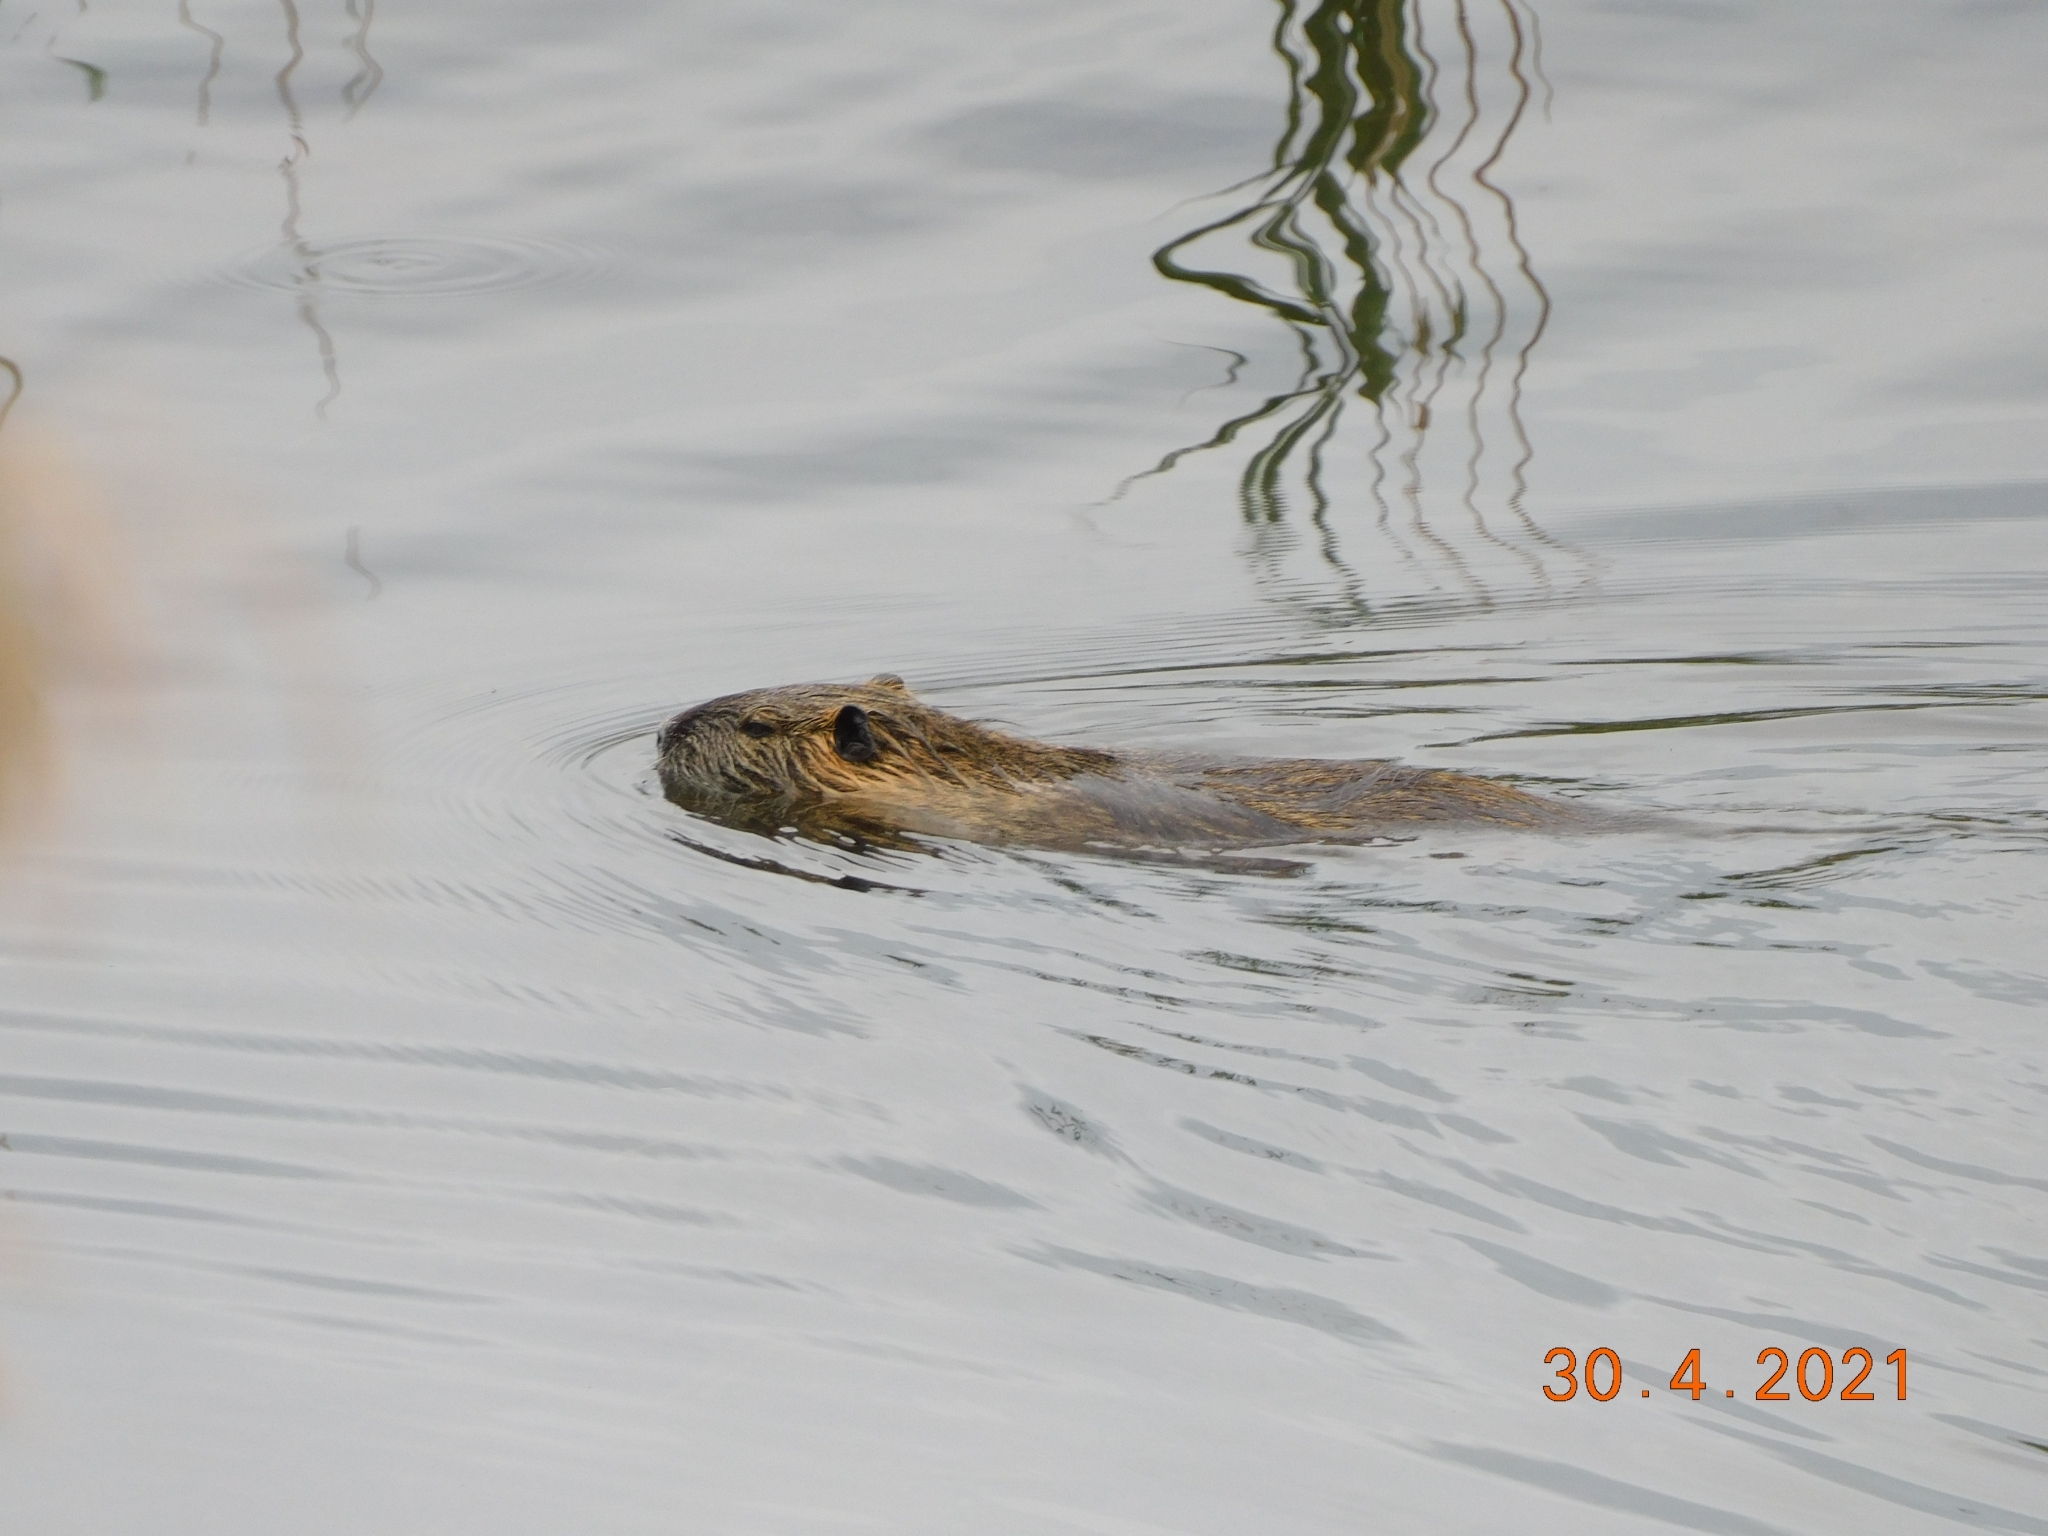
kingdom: Animalia
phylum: Chordata
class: Mammalia
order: Rodentia
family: Myocastoridae
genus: Myocastor
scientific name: Myocastor coypus
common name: Coypu
